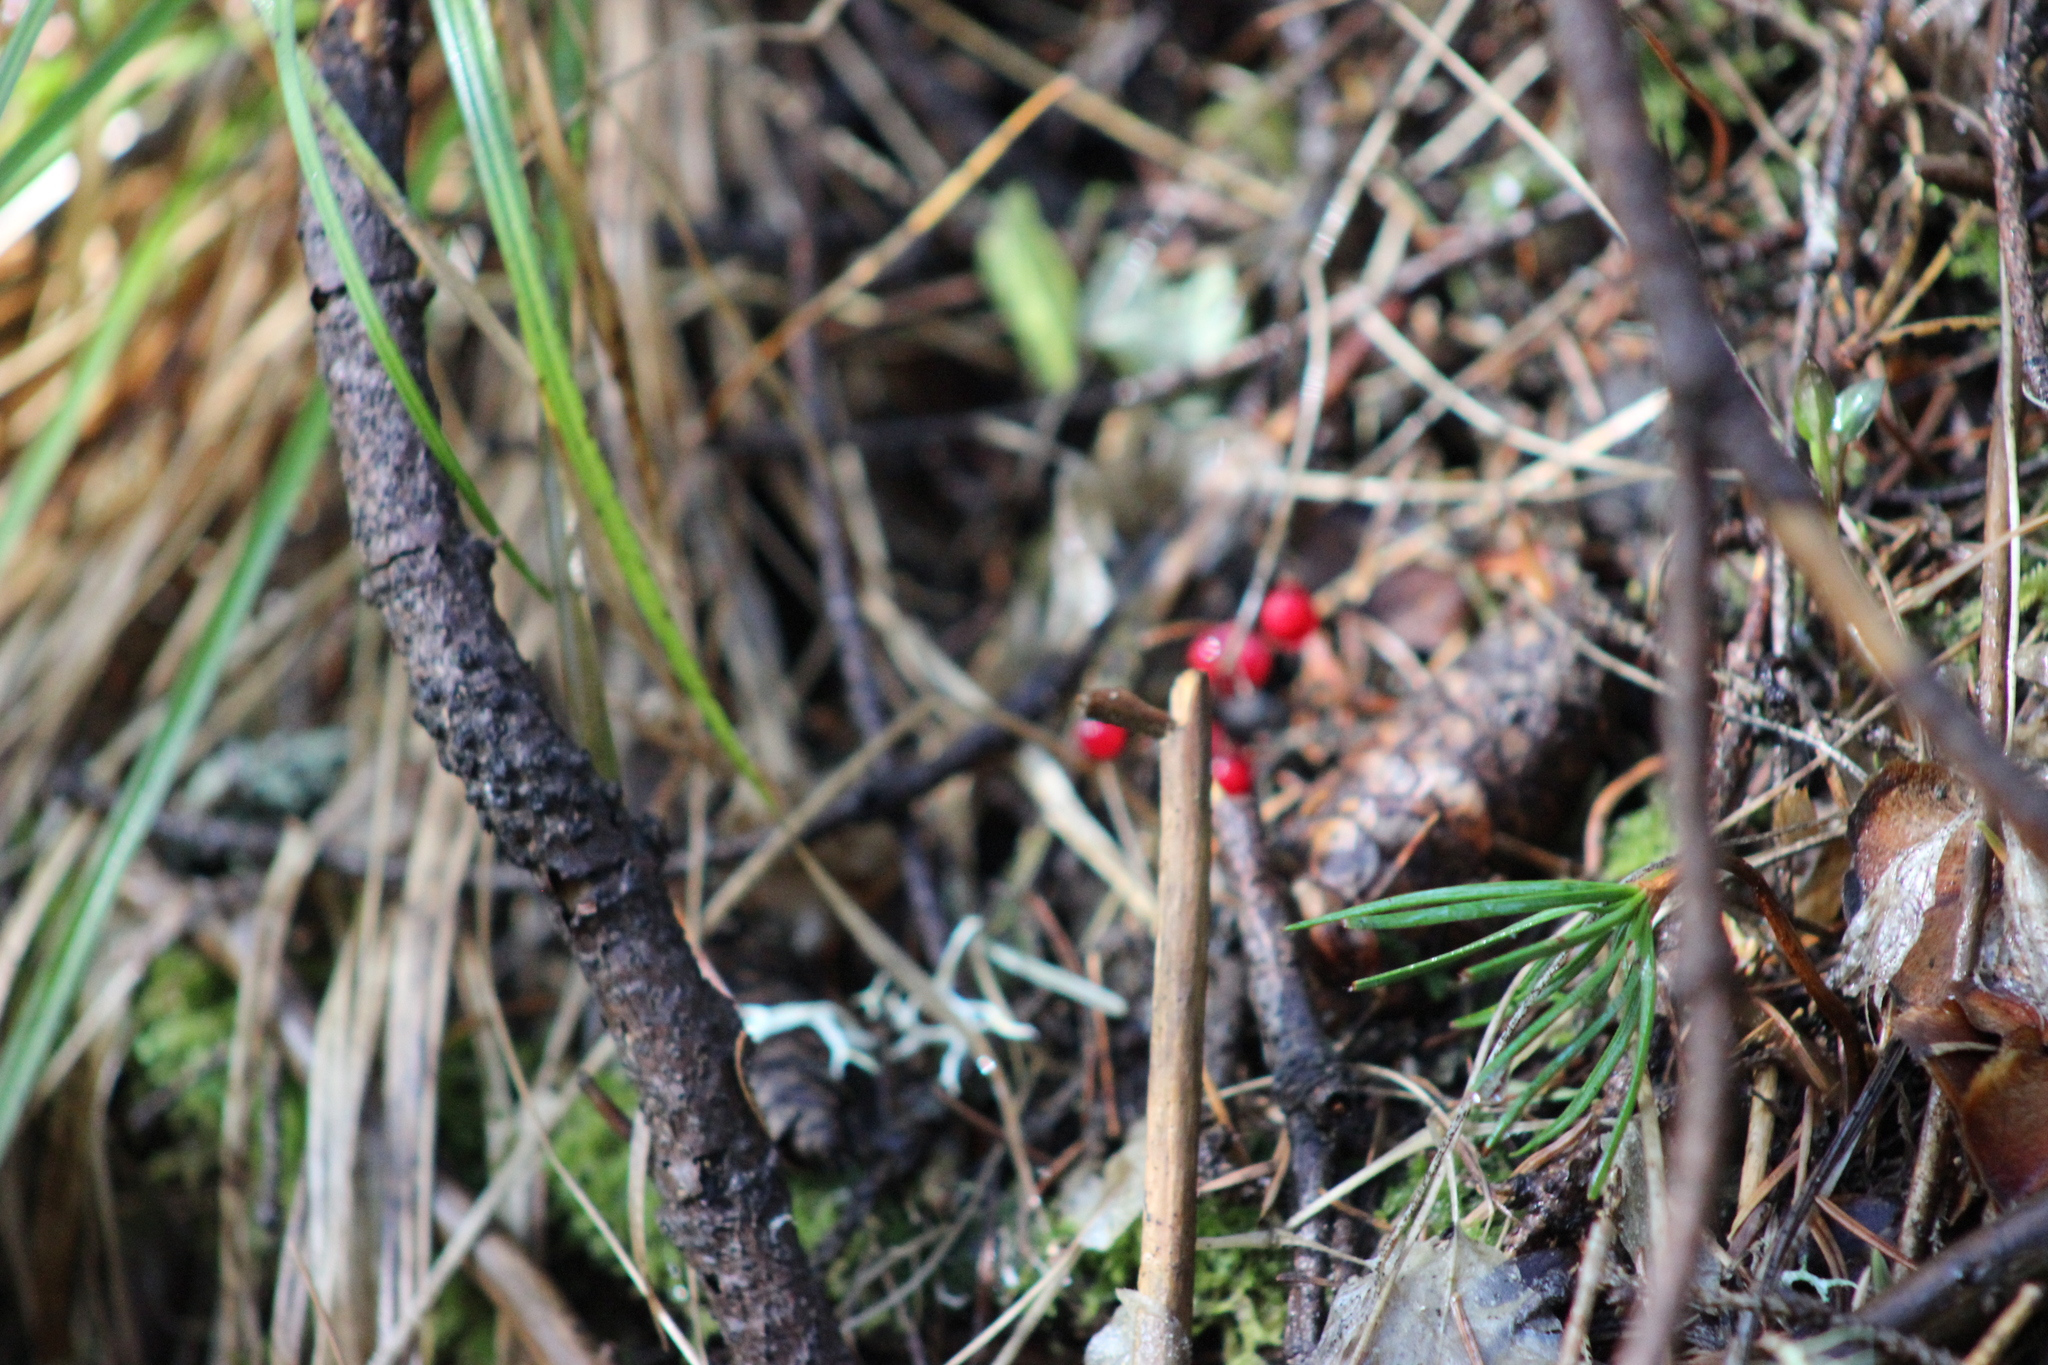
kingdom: Plantae
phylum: Tracheophyta
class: Liliopsida
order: Asparagales
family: Asparagaceae
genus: Maianthemum
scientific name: Maianthemum bifolium
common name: May lily
